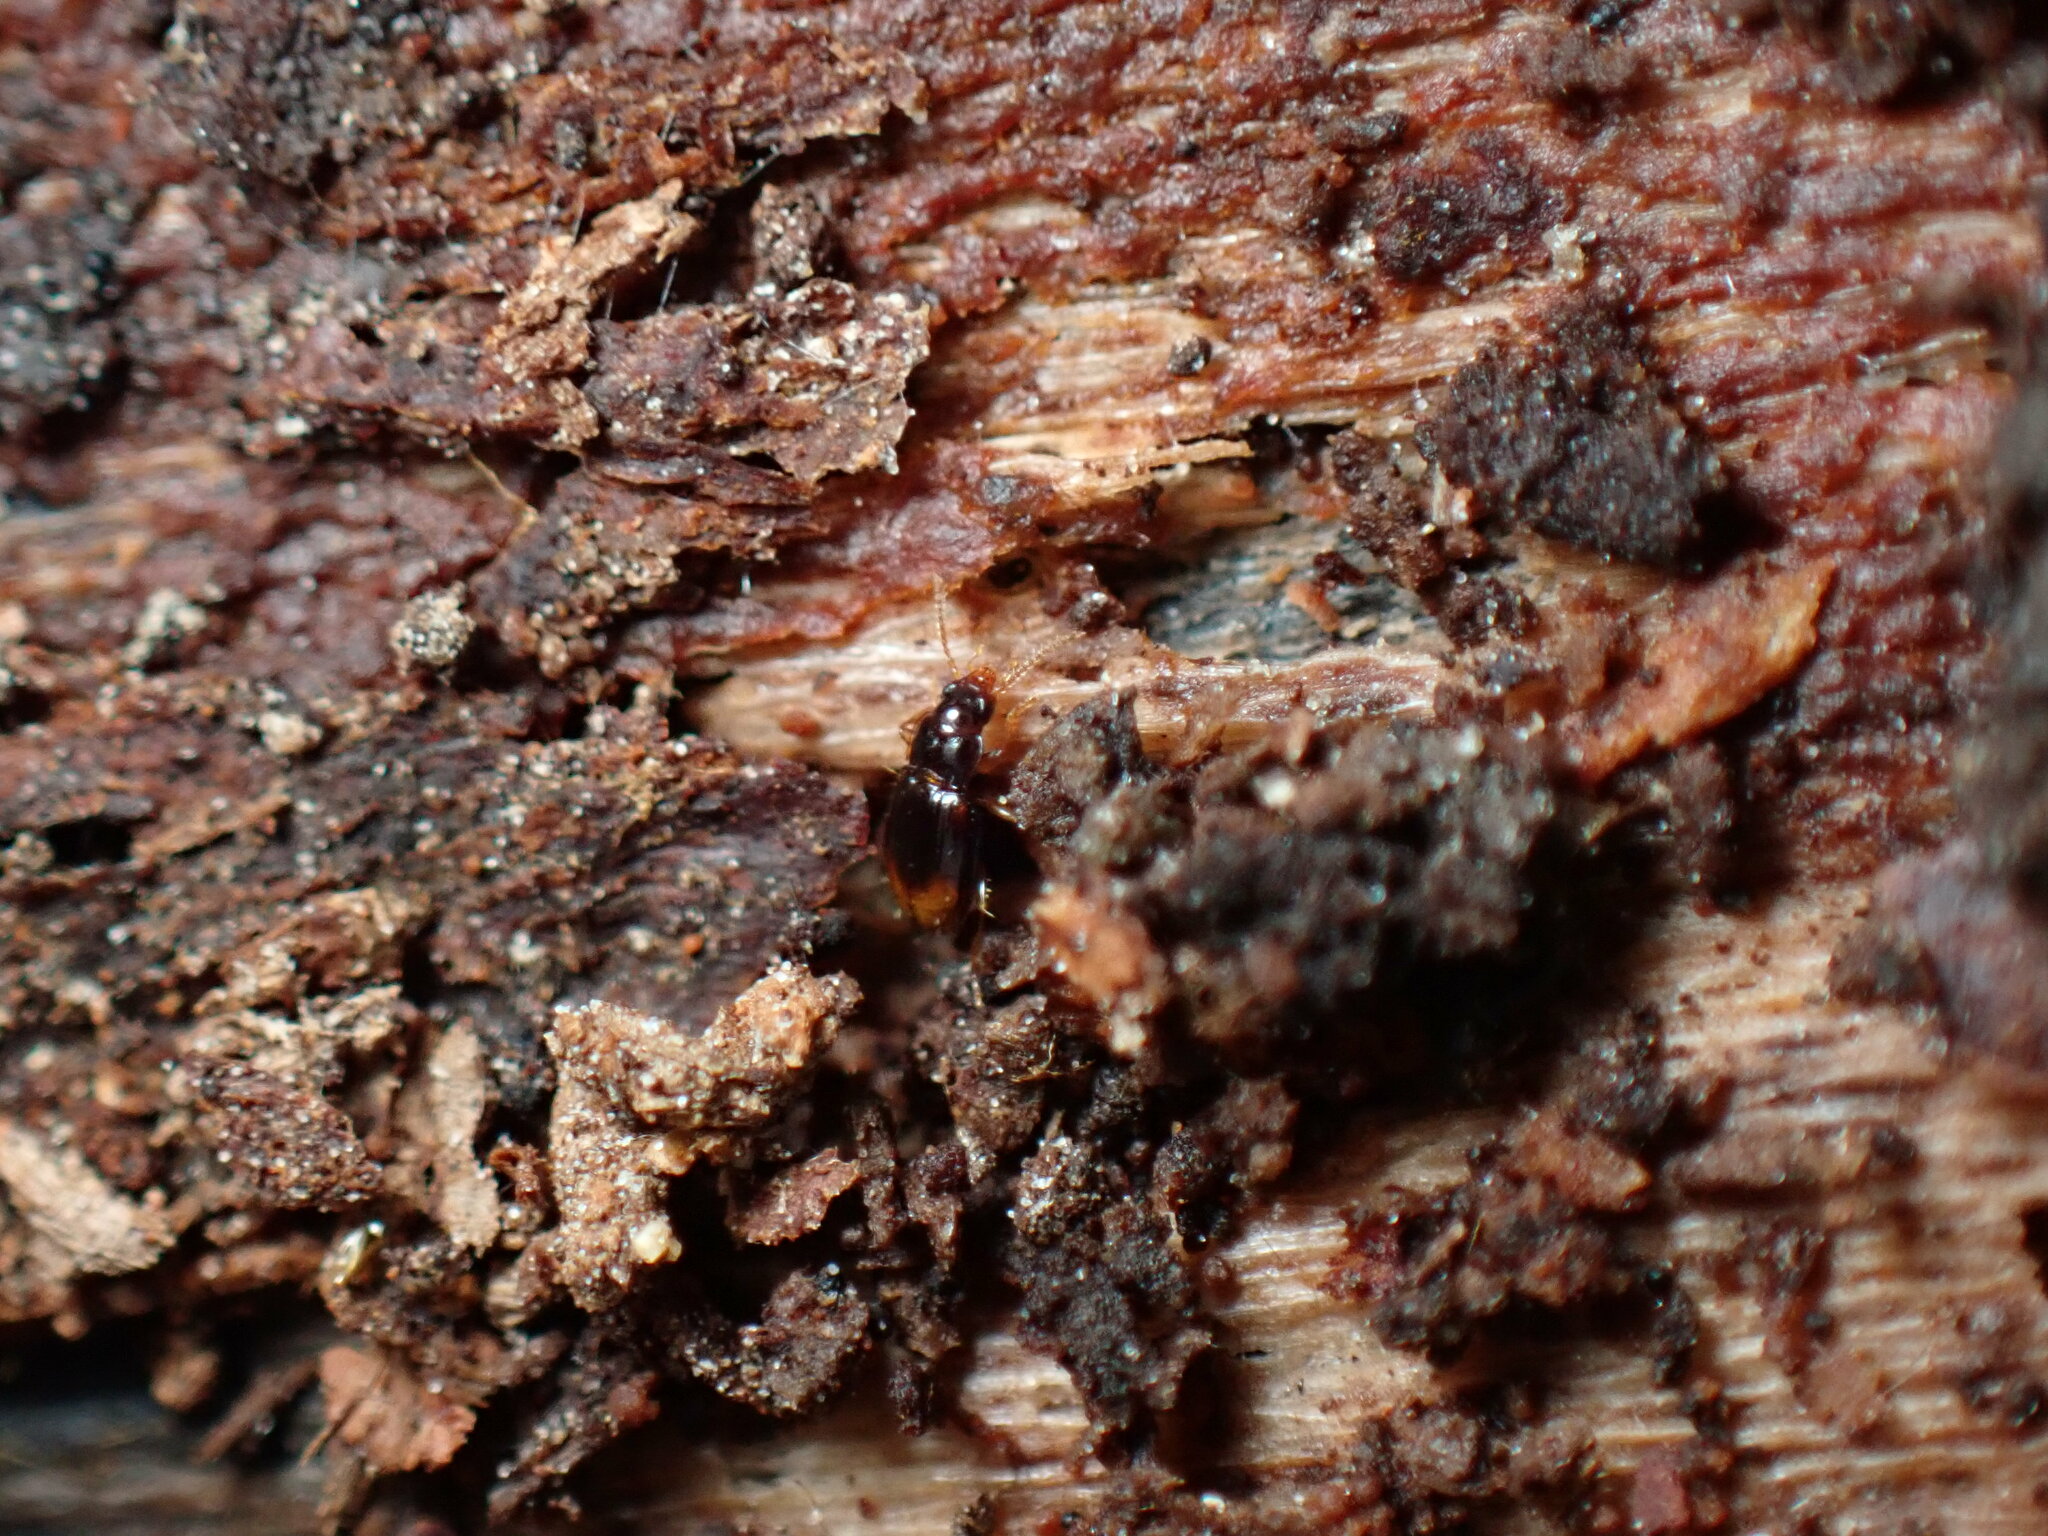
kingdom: Animalia
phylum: Arthropoda
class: Insecta
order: Coleoptera
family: Carabidae
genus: Mioptachys
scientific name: Mioptachys flavicauda
